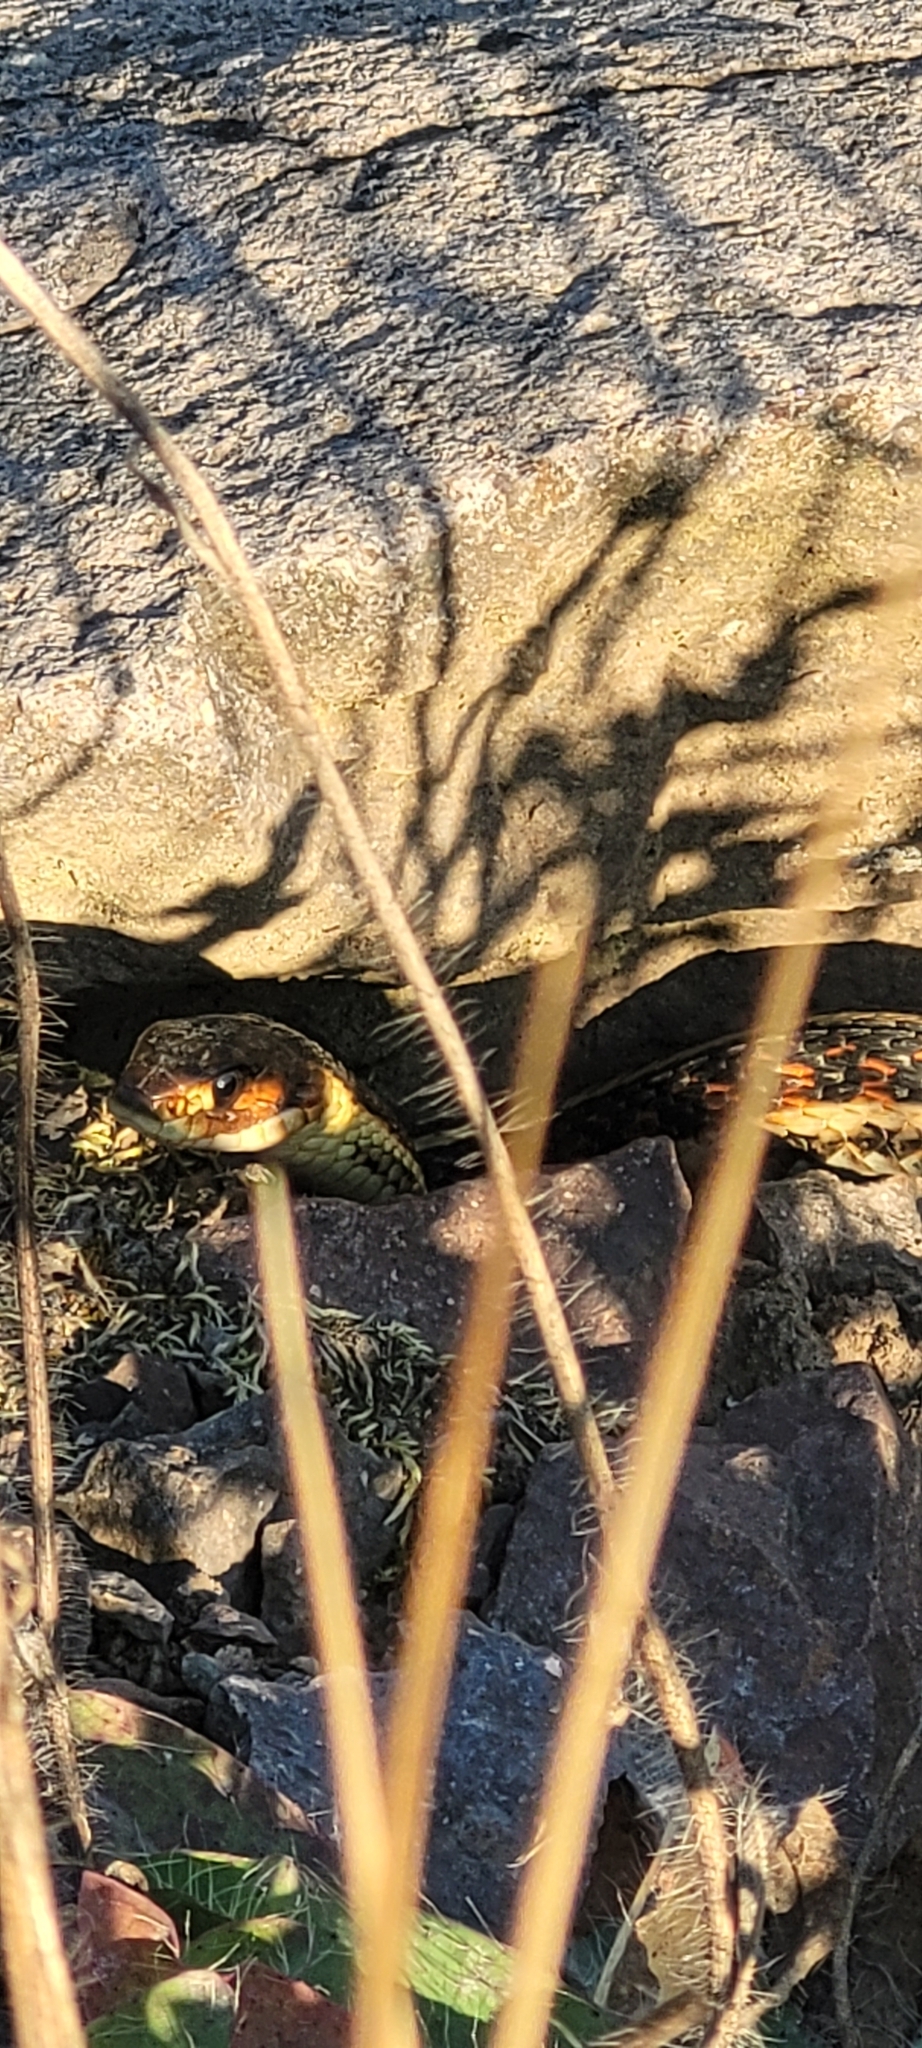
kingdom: Animalia
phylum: Chordata
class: Squamata
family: Colubridae
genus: Thamnophis
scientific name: Thamnophis sirtalis
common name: Common garter snake
